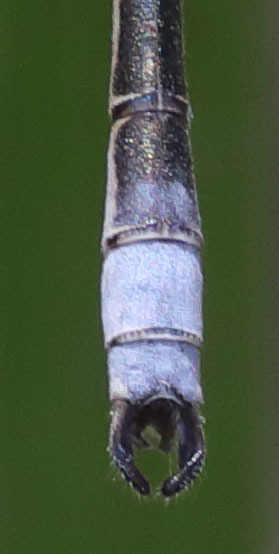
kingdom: Animalia
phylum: Arthropoda
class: Insecta
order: Odonata
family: Lestidae
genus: Lestes
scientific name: Lestes congener
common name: Spotted spreadwing
